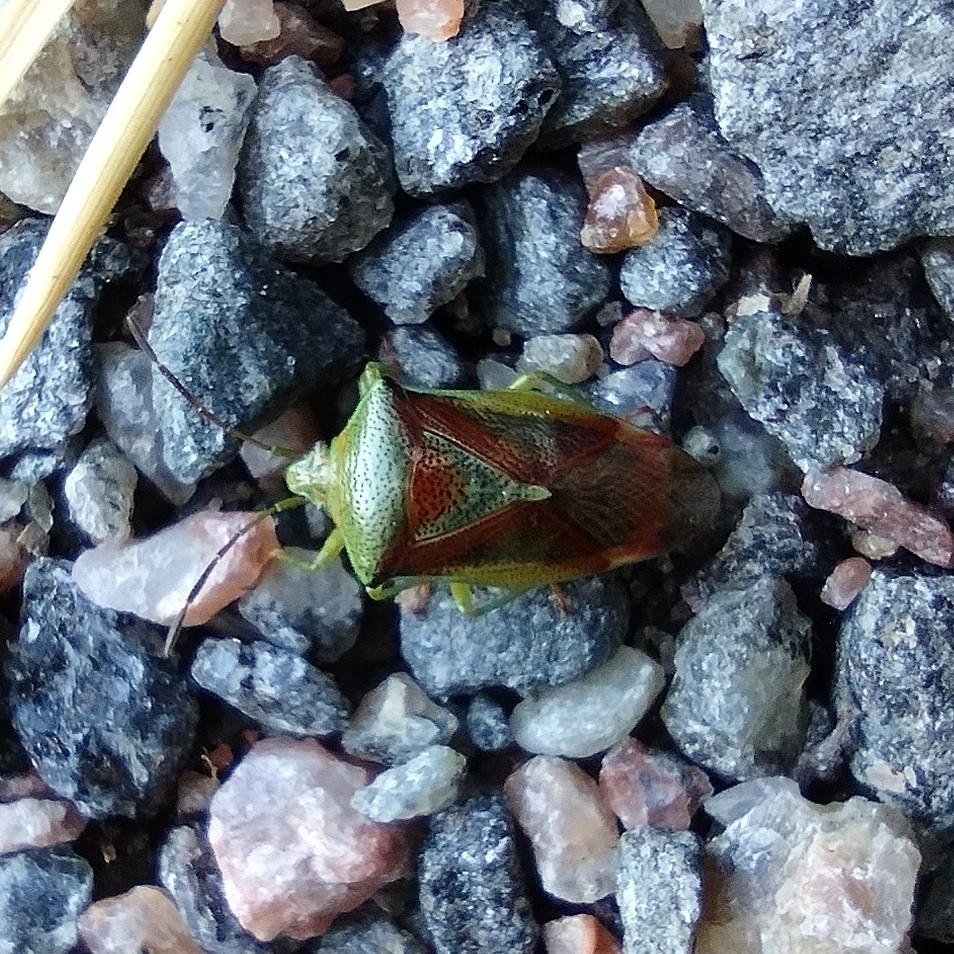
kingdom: Animalia
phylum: Arthropoda
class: Insecta
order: Hemiptera
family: Acanthosomatidae
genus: Elasmostethus
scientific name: Elasmostethus interstinctus
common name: Birch shieldbug
